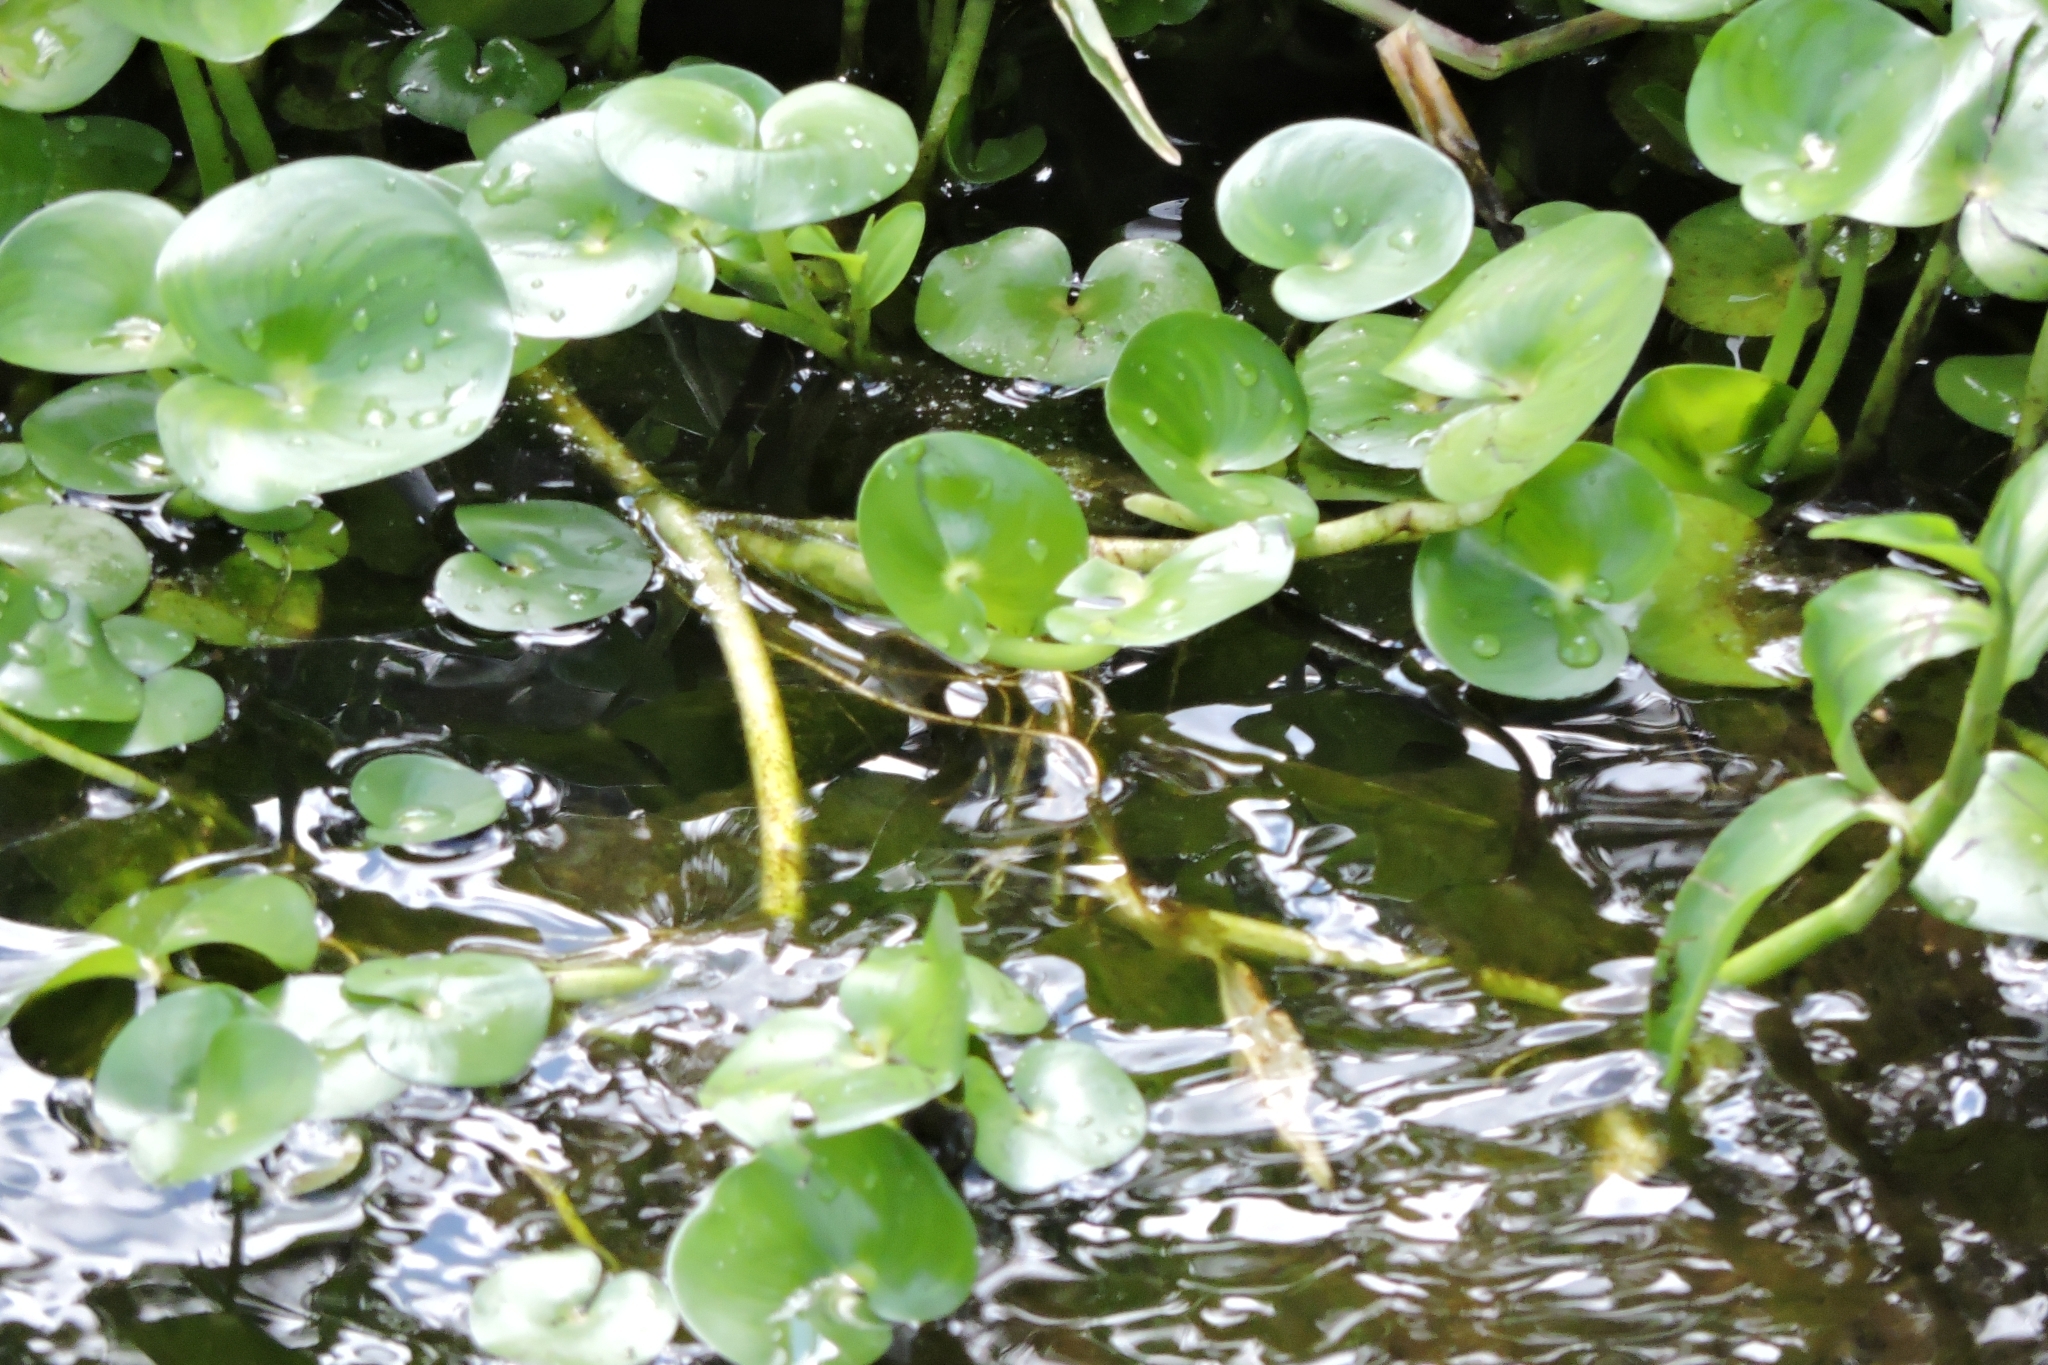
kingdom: Plantae
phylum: Tracheophyta
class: Liliopsida
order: Commelinales
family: Pontederiaceae
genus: Heteranthera
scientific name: Heteranthera reniformis
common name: Kidneyleaf mudplantain
